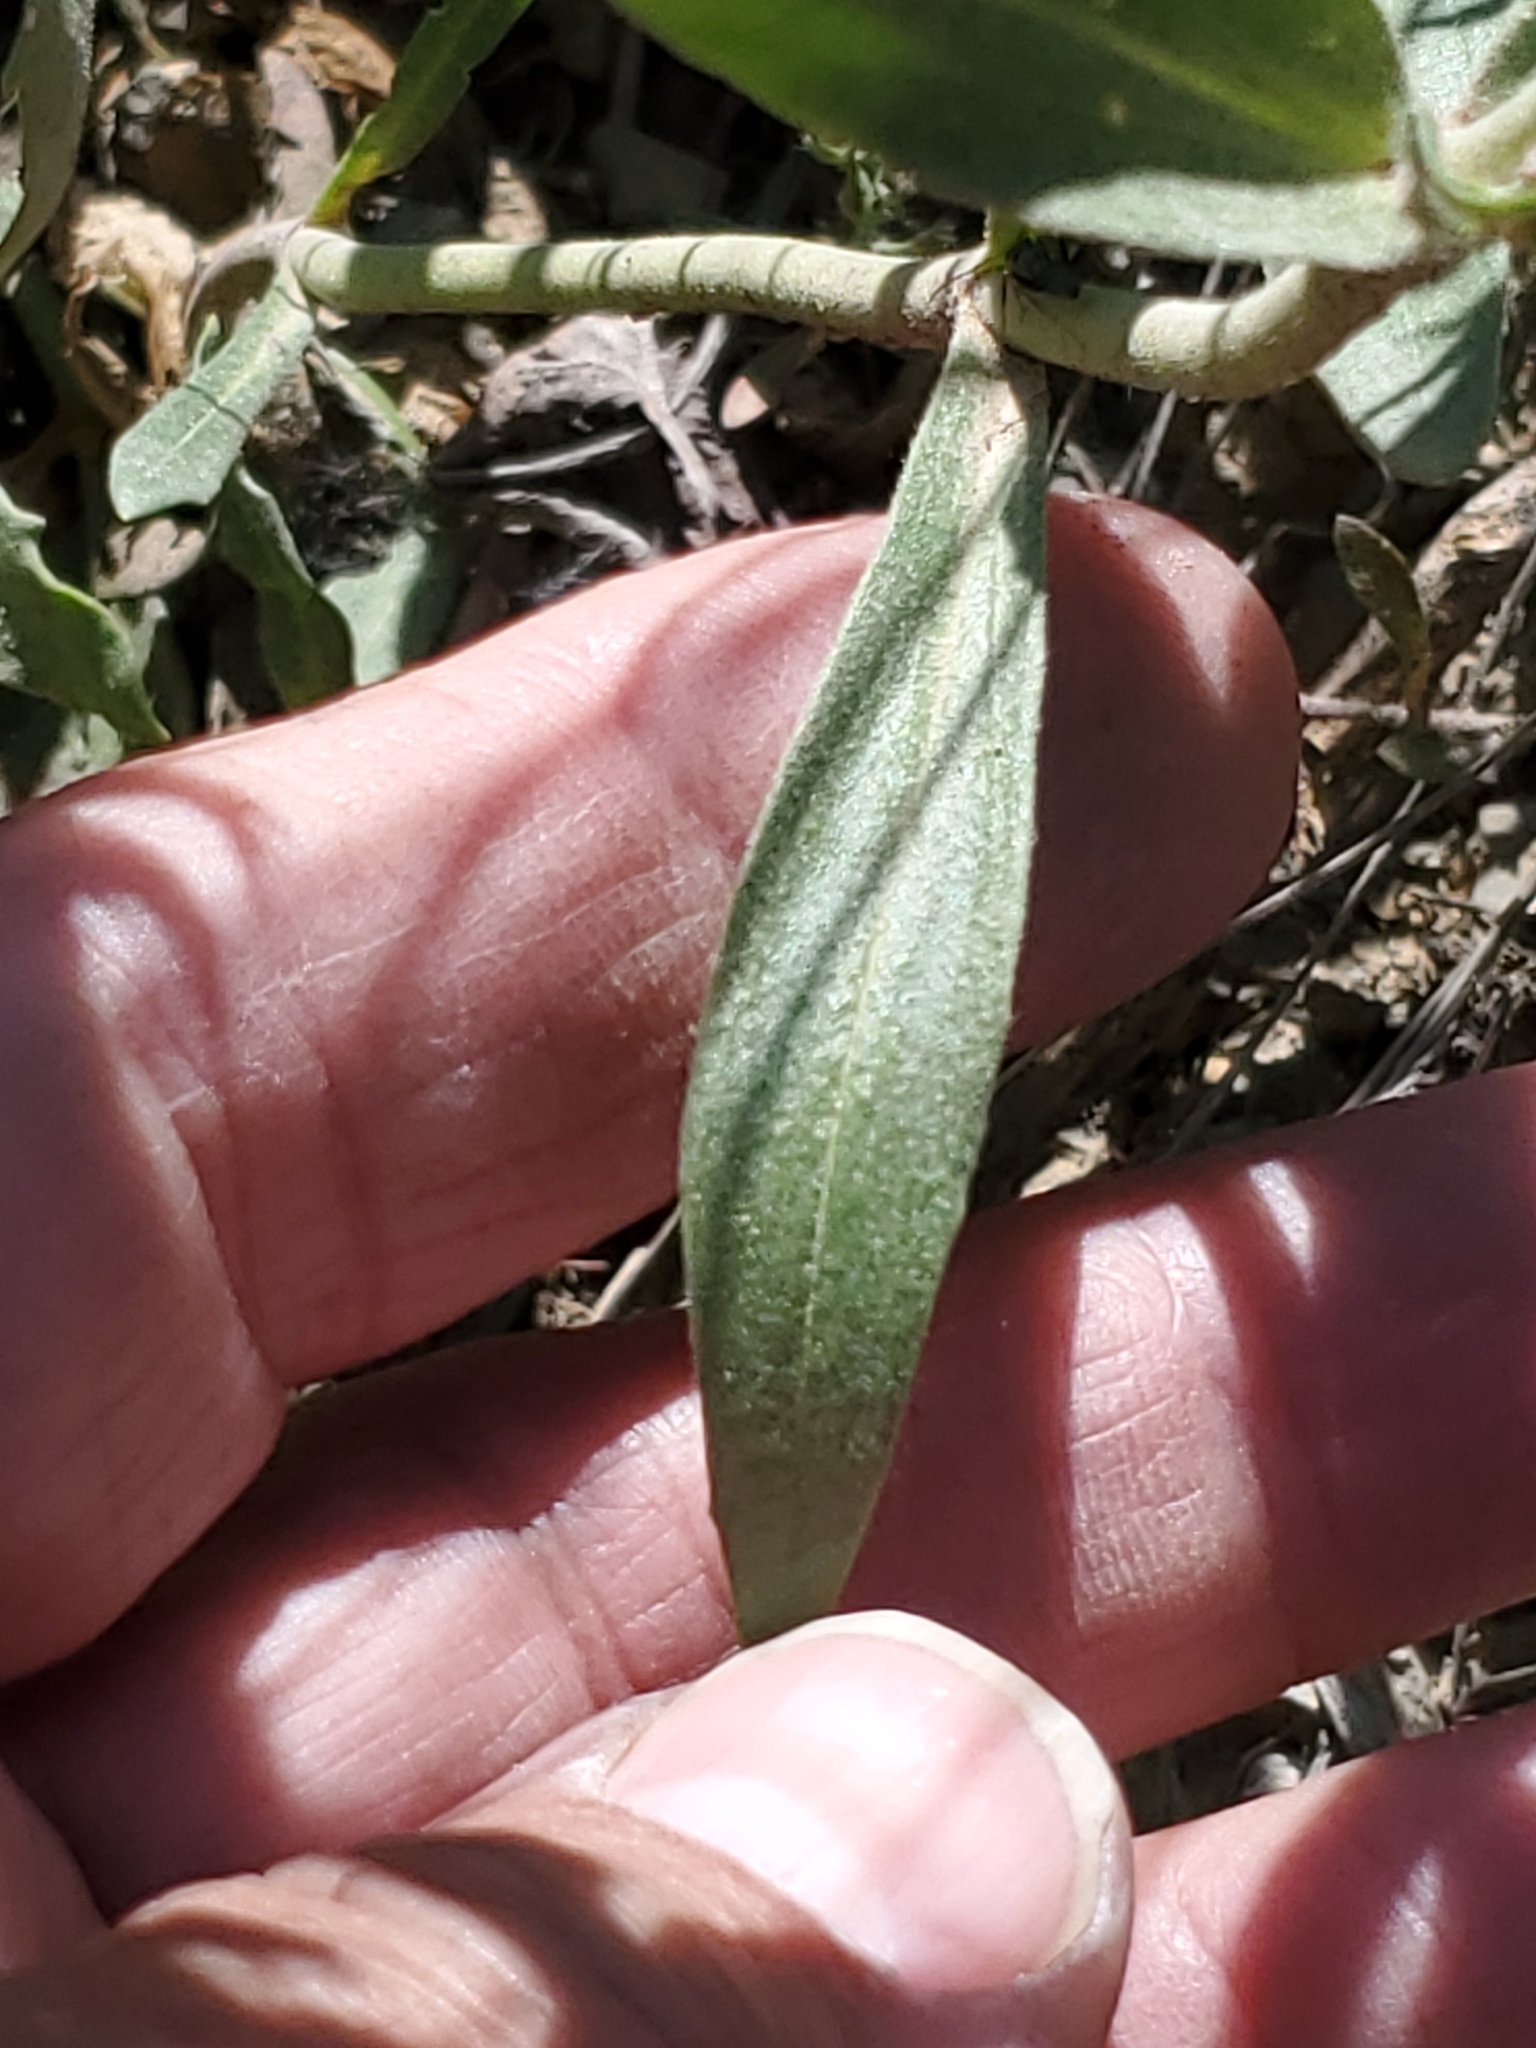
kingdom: Plantae
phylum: Tracheophyta
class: Magnoliopsida
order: Lamiales
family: Plantaginaceae
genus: Penstemon
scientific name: Penstemon eriantherus
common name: Crested beardtongue
